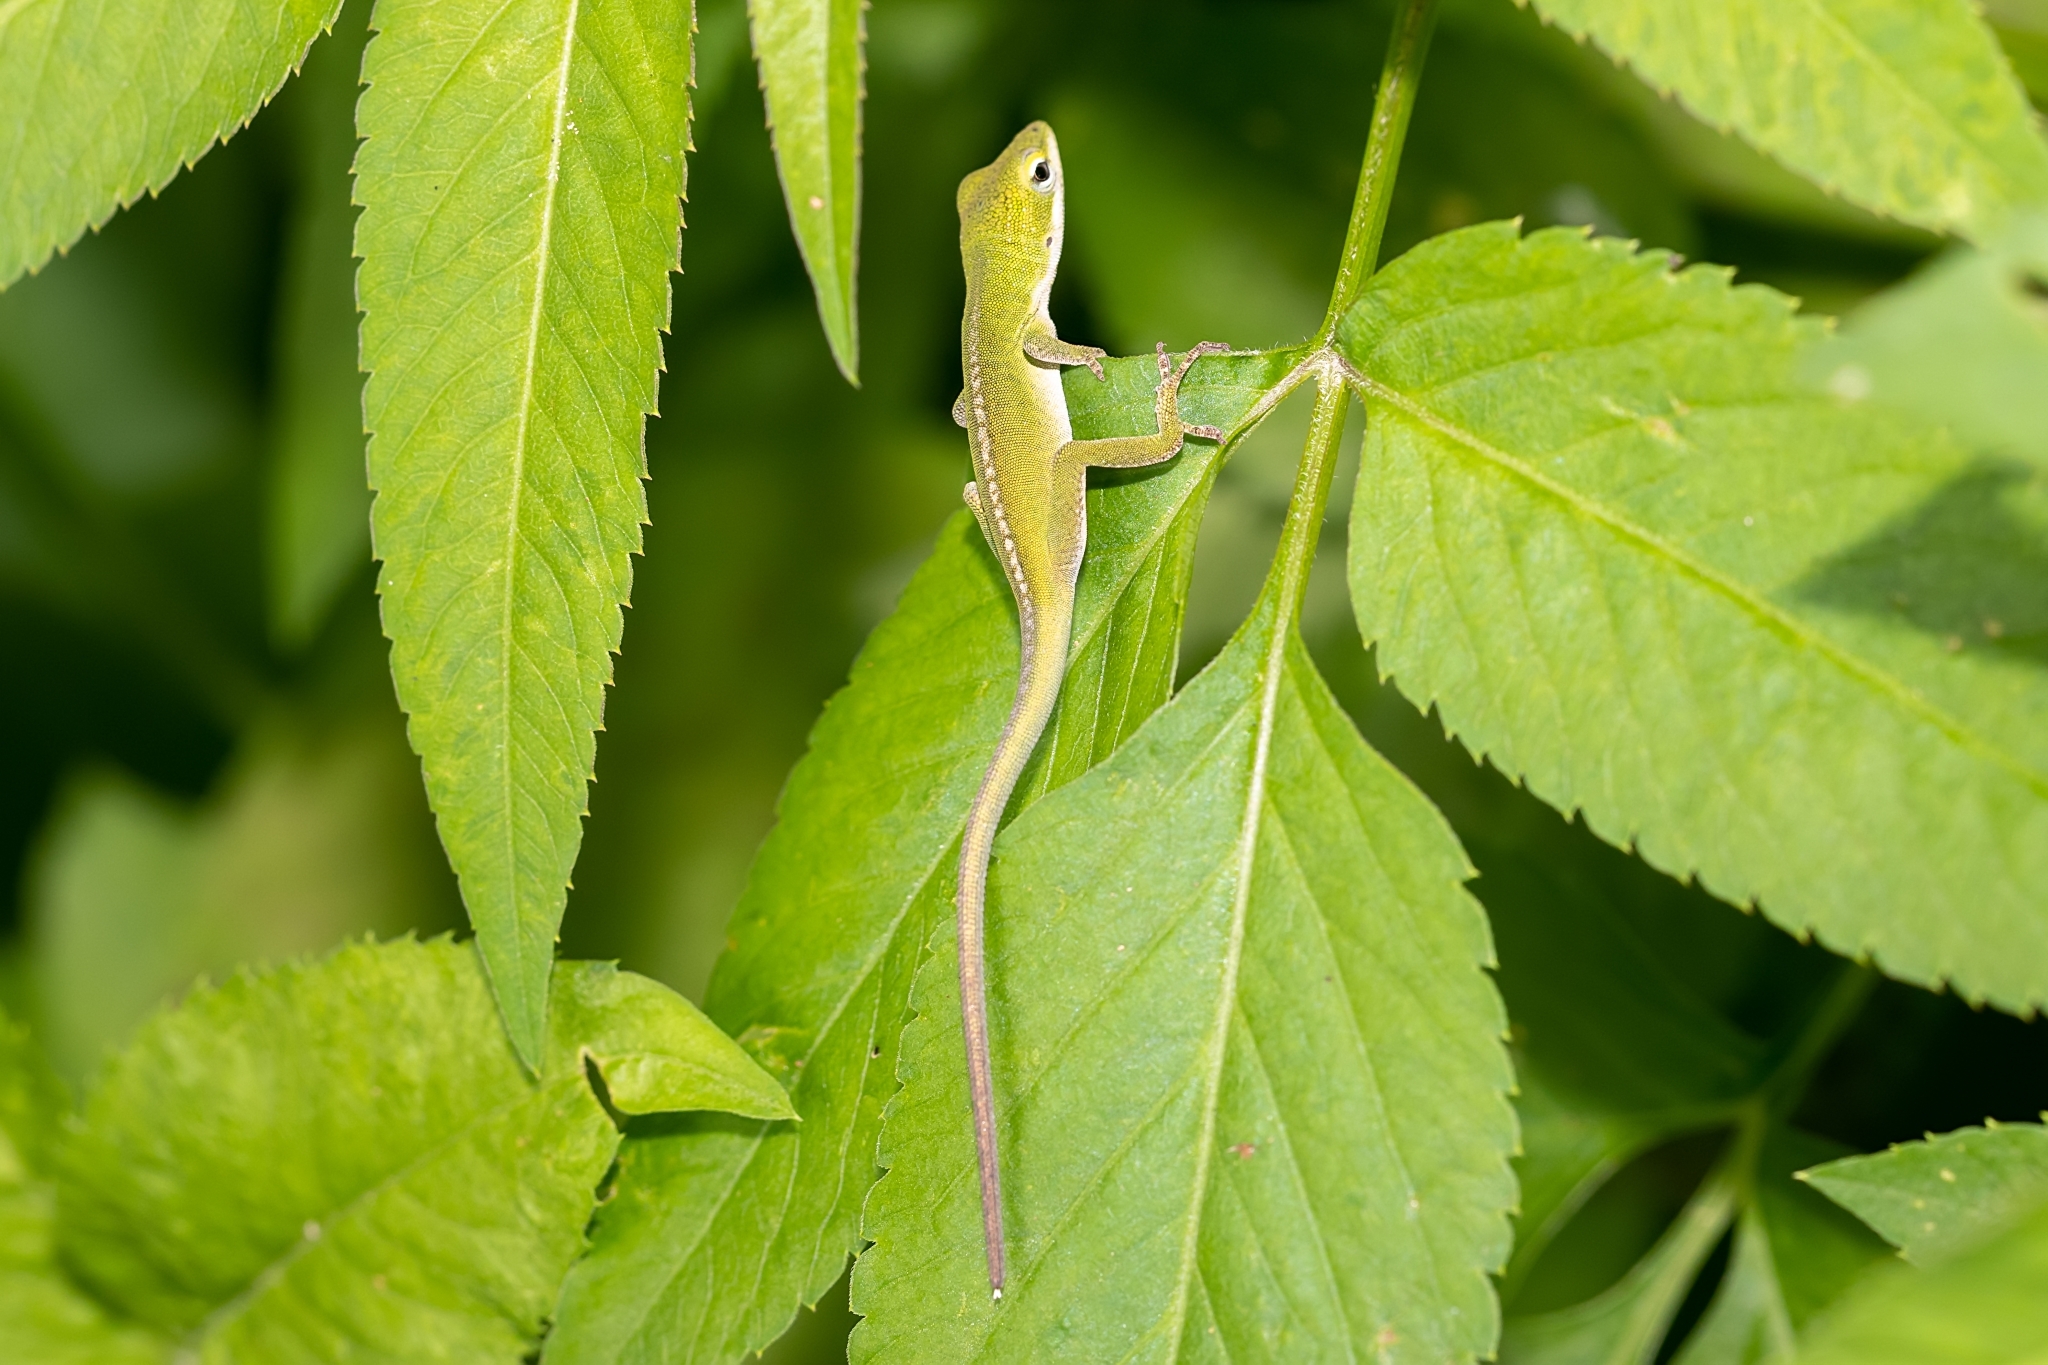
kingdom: Animalia
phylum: Chordata
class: Squamata
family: Dactyloidae
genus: Anolis
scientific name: Anolis carolinensis
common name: Green anole
